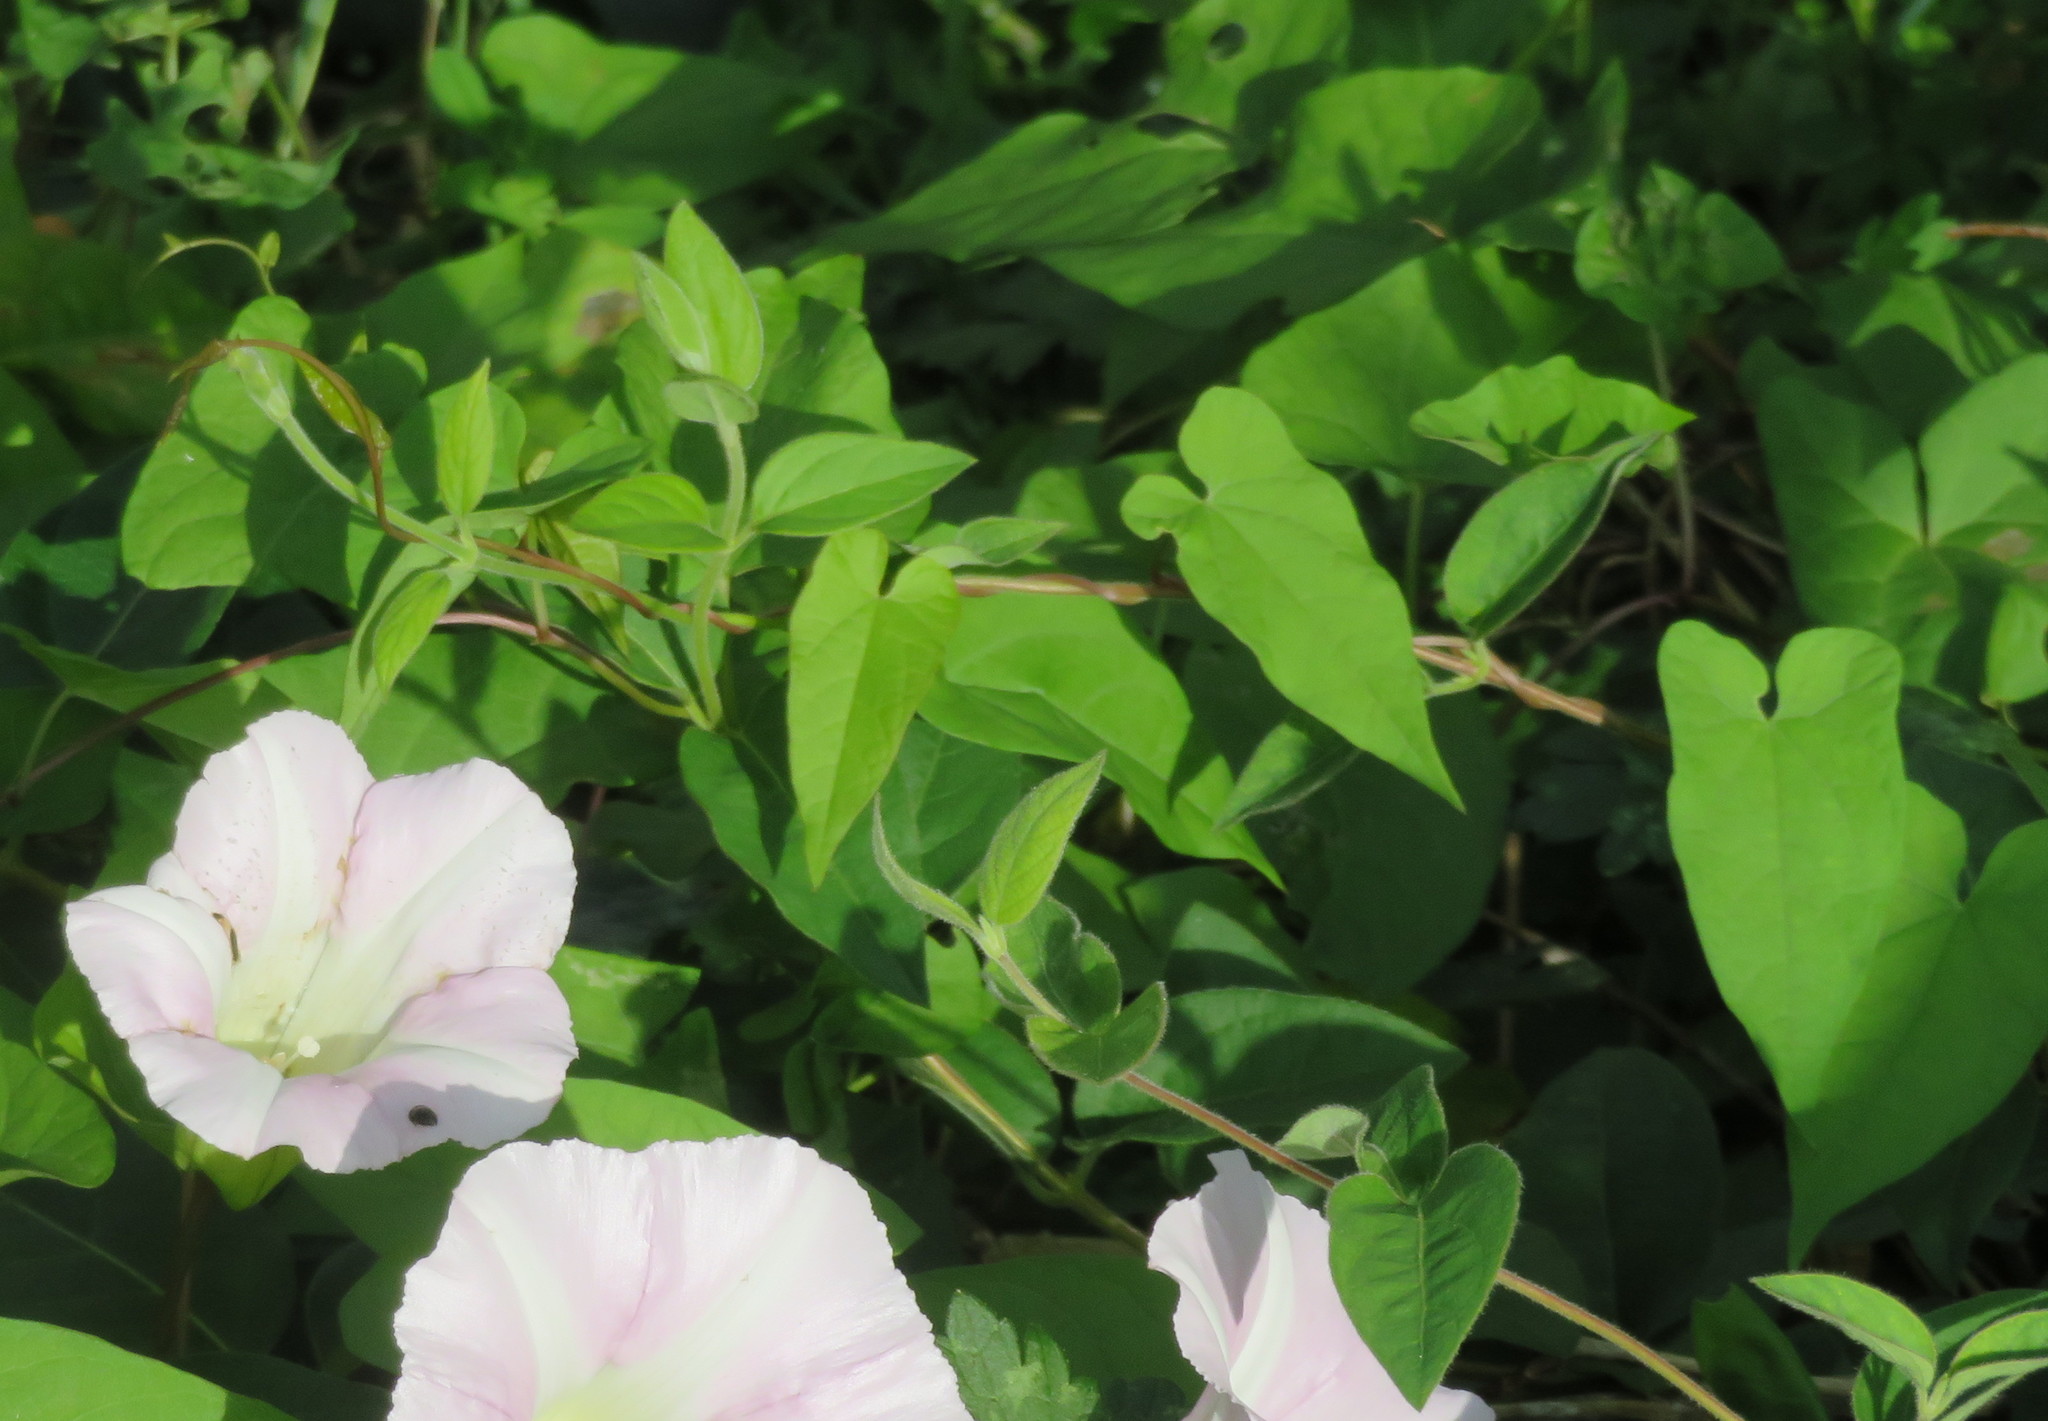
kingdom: Plantae
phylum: Tracheophyta
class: Magnoliopsida
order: Dipsacales
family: Caprifoliaceae
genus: Lonicera
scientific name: Lonicera japonica
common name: Japanese honeysuckle
